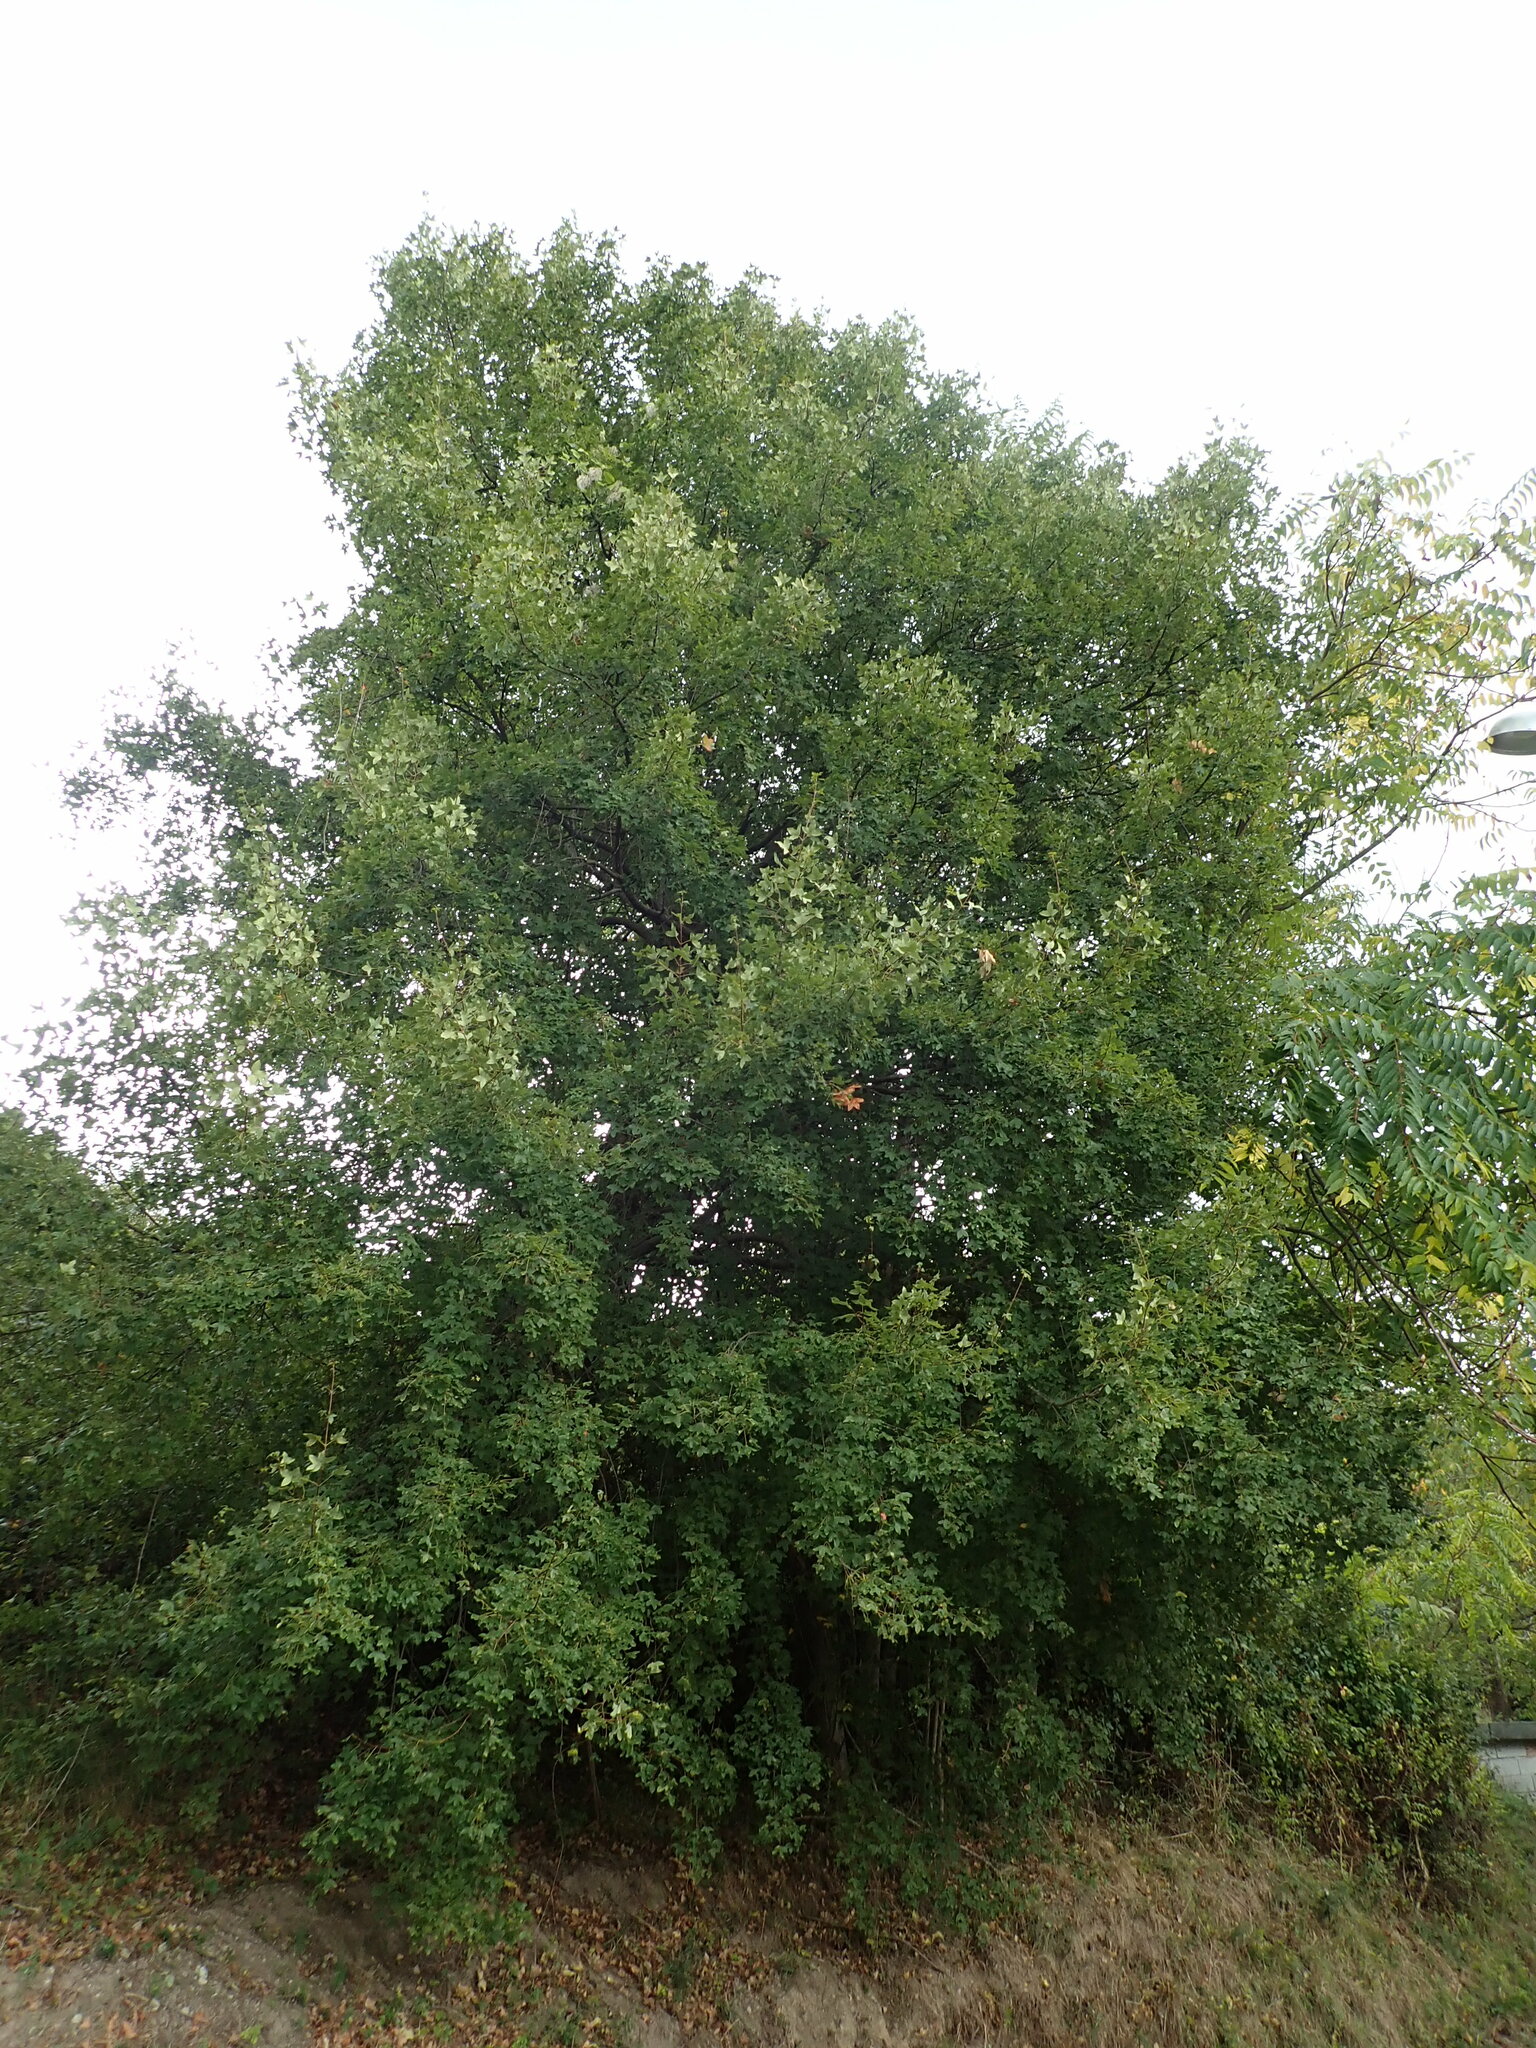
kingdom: Plantae
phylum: Tracheophyta
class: Magnoliopsida
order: Sapindales
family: Sapindaceae
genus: Acer
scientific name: Acer monspessulanum
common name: Montpellier maple
